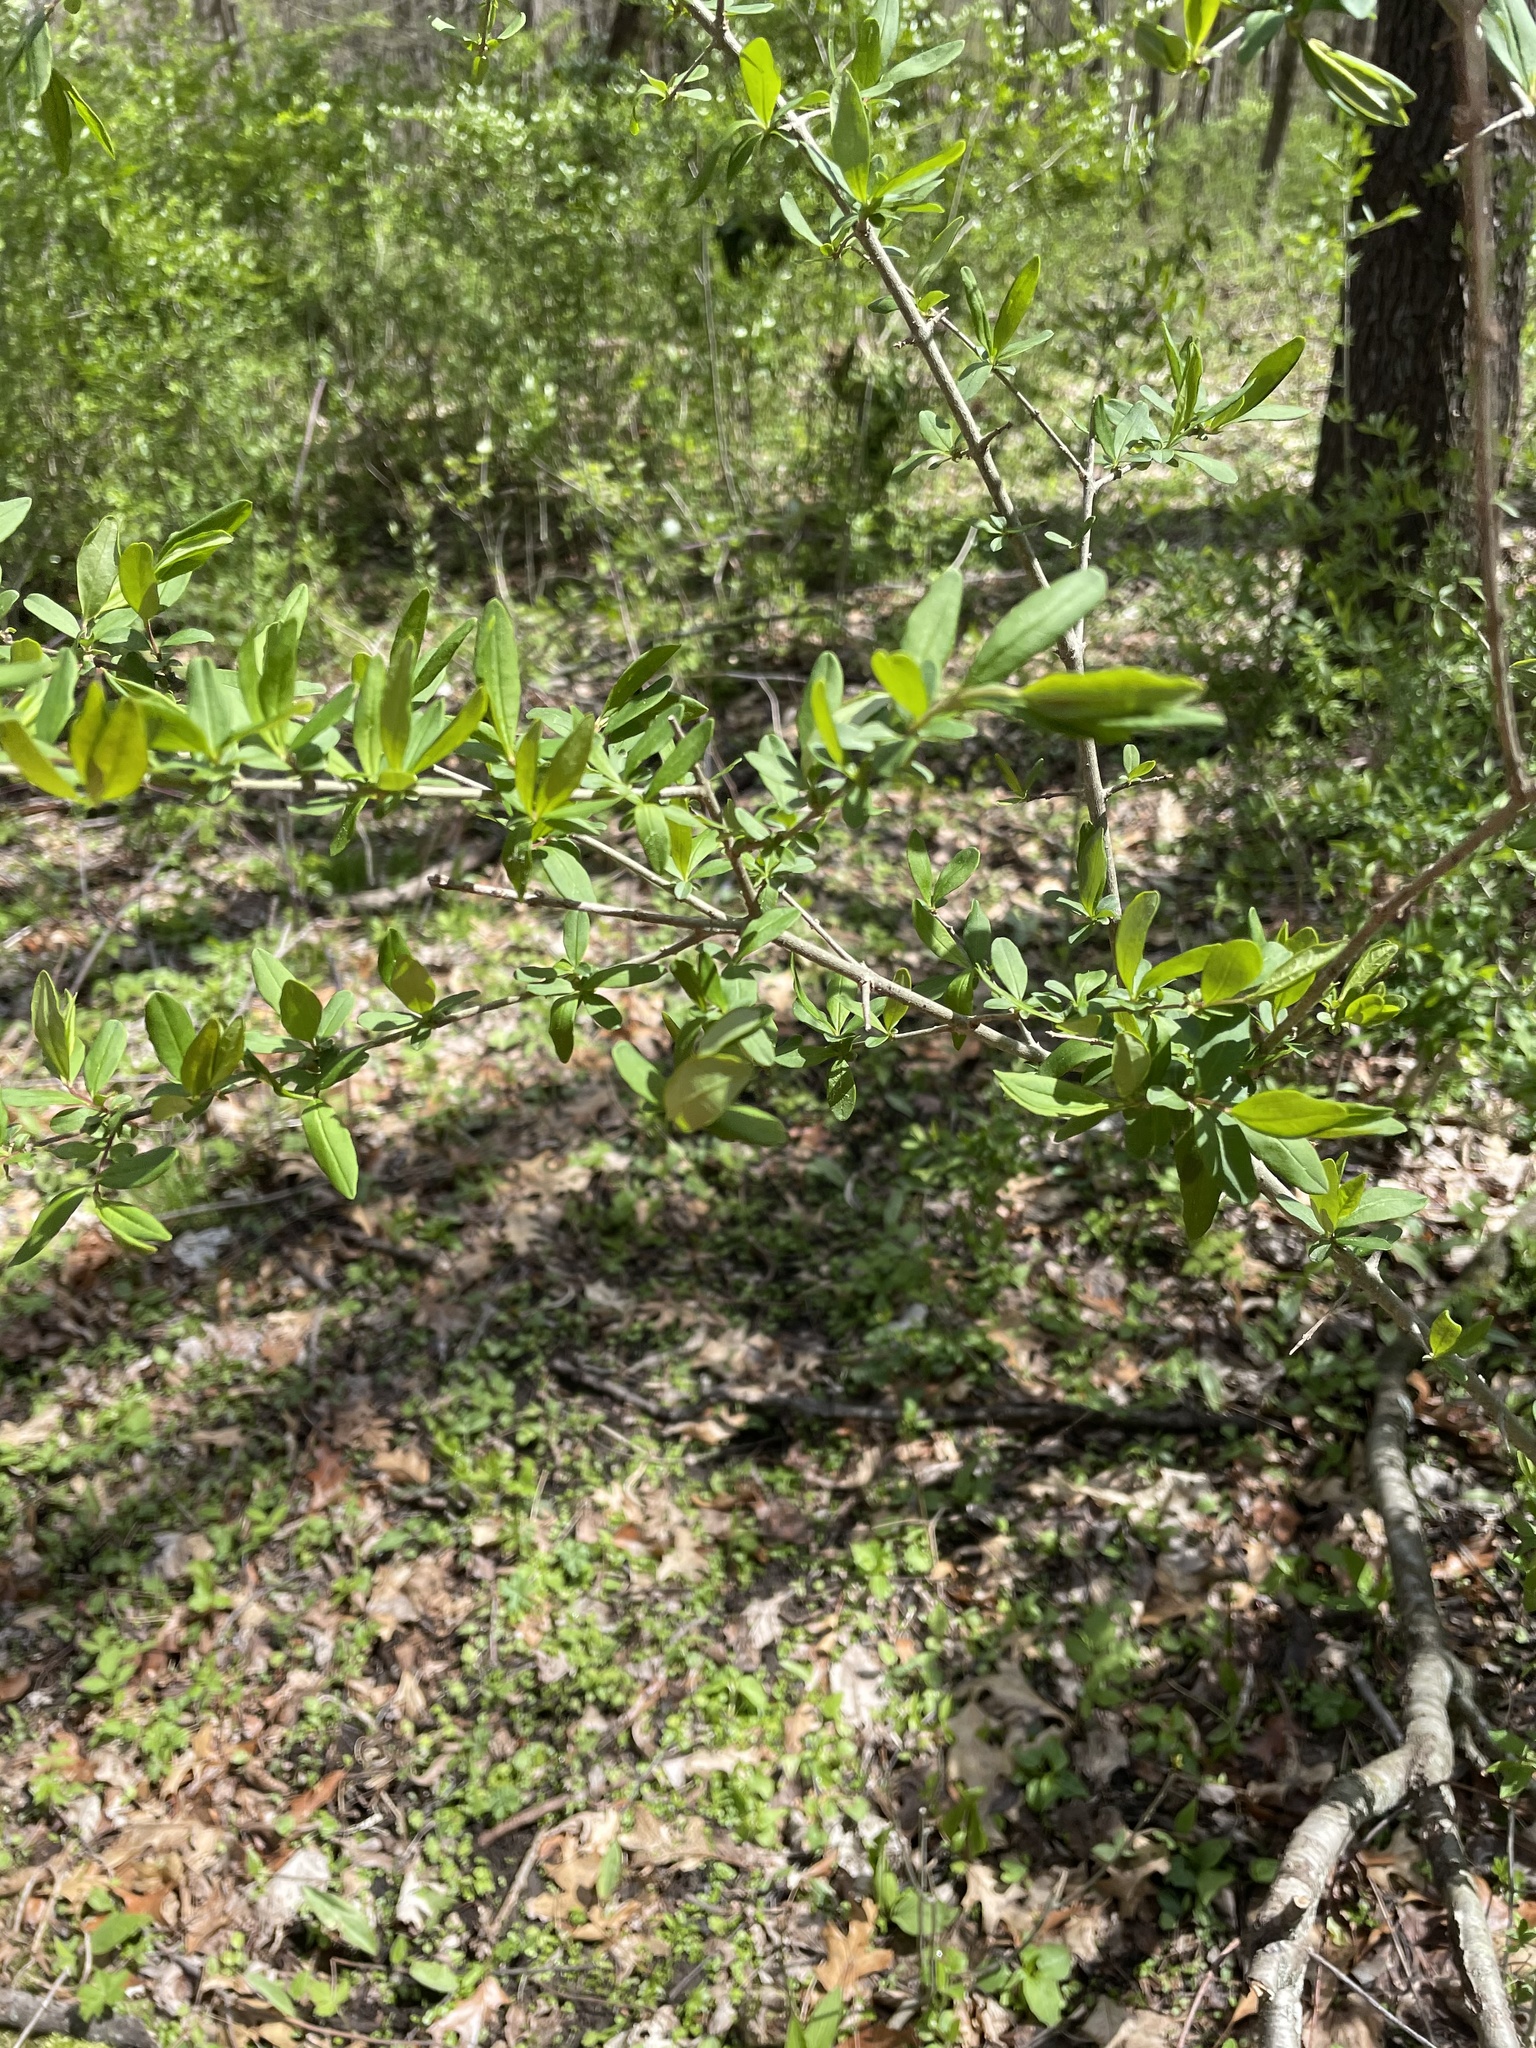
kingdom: Plantae
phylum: Tracheophyta
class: Magnoliopsida
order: Lamiales
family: Oleaceae
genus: Ligustrum
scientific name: Ligustrum
